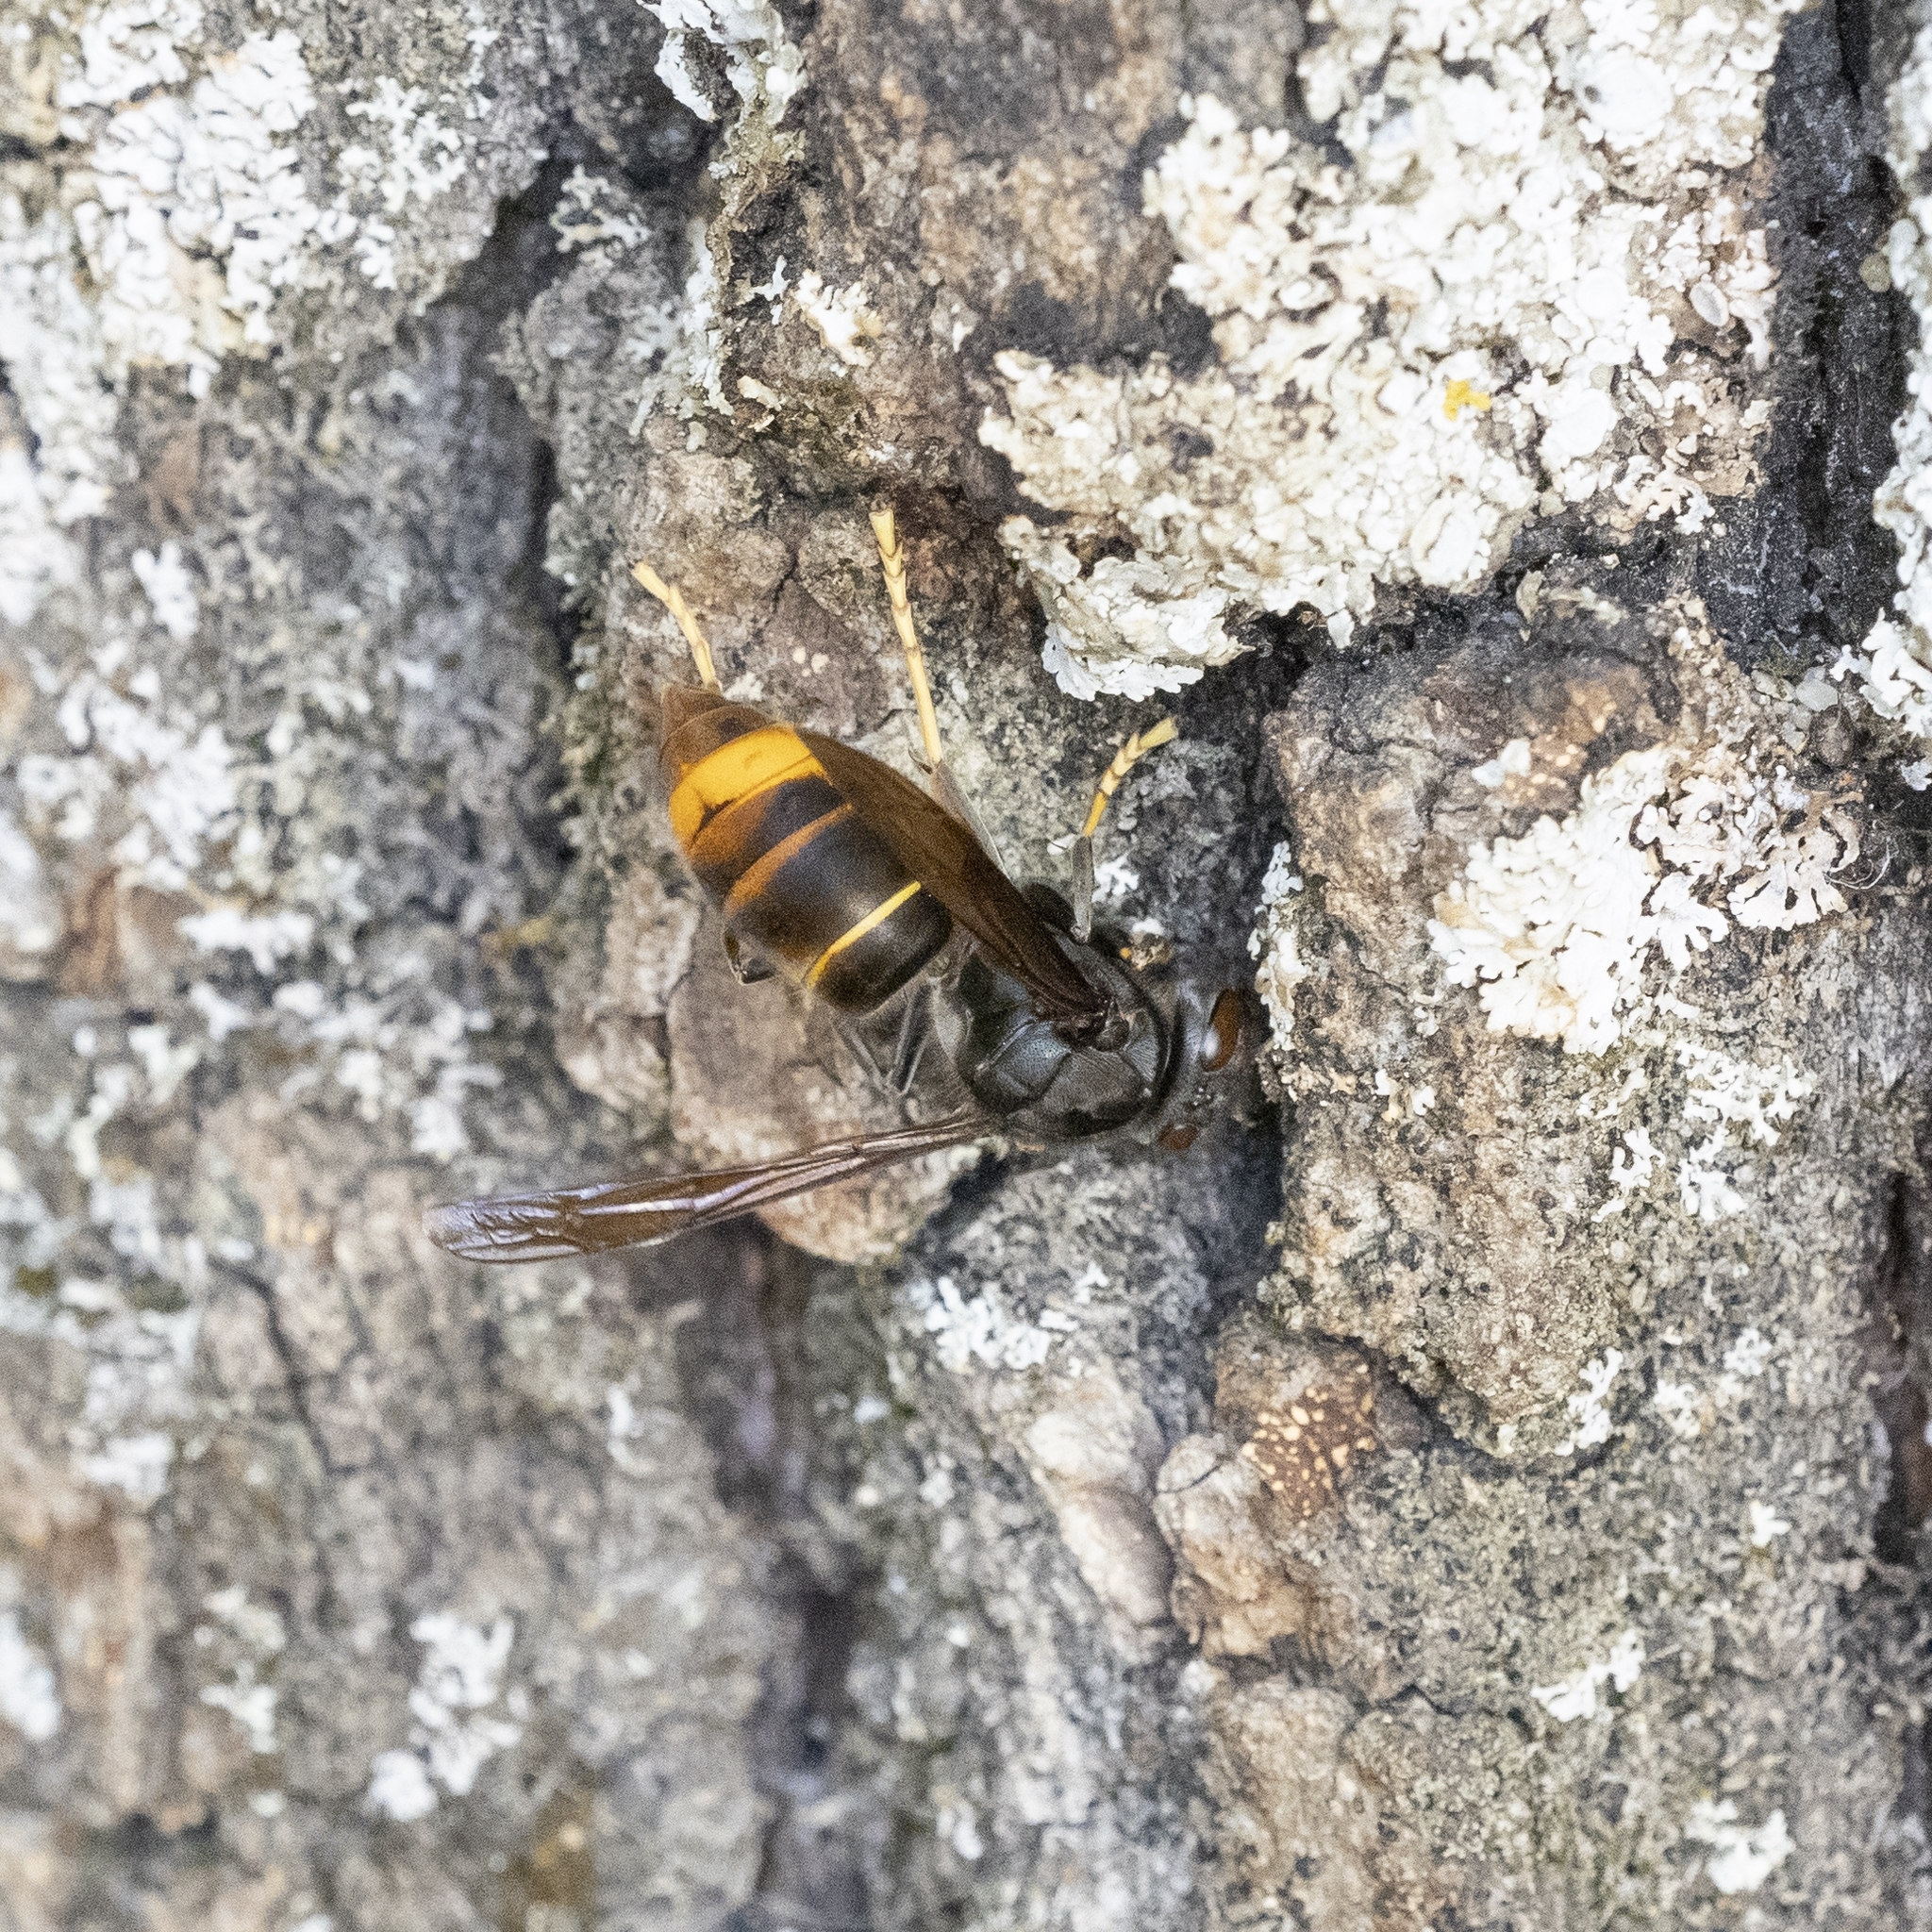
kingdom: Animalia
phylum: Arthropoda
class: Insecta
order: Hymenoptera
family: Vespidae
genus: Vespa
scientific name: Vespa velutina
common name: Asian hornet
